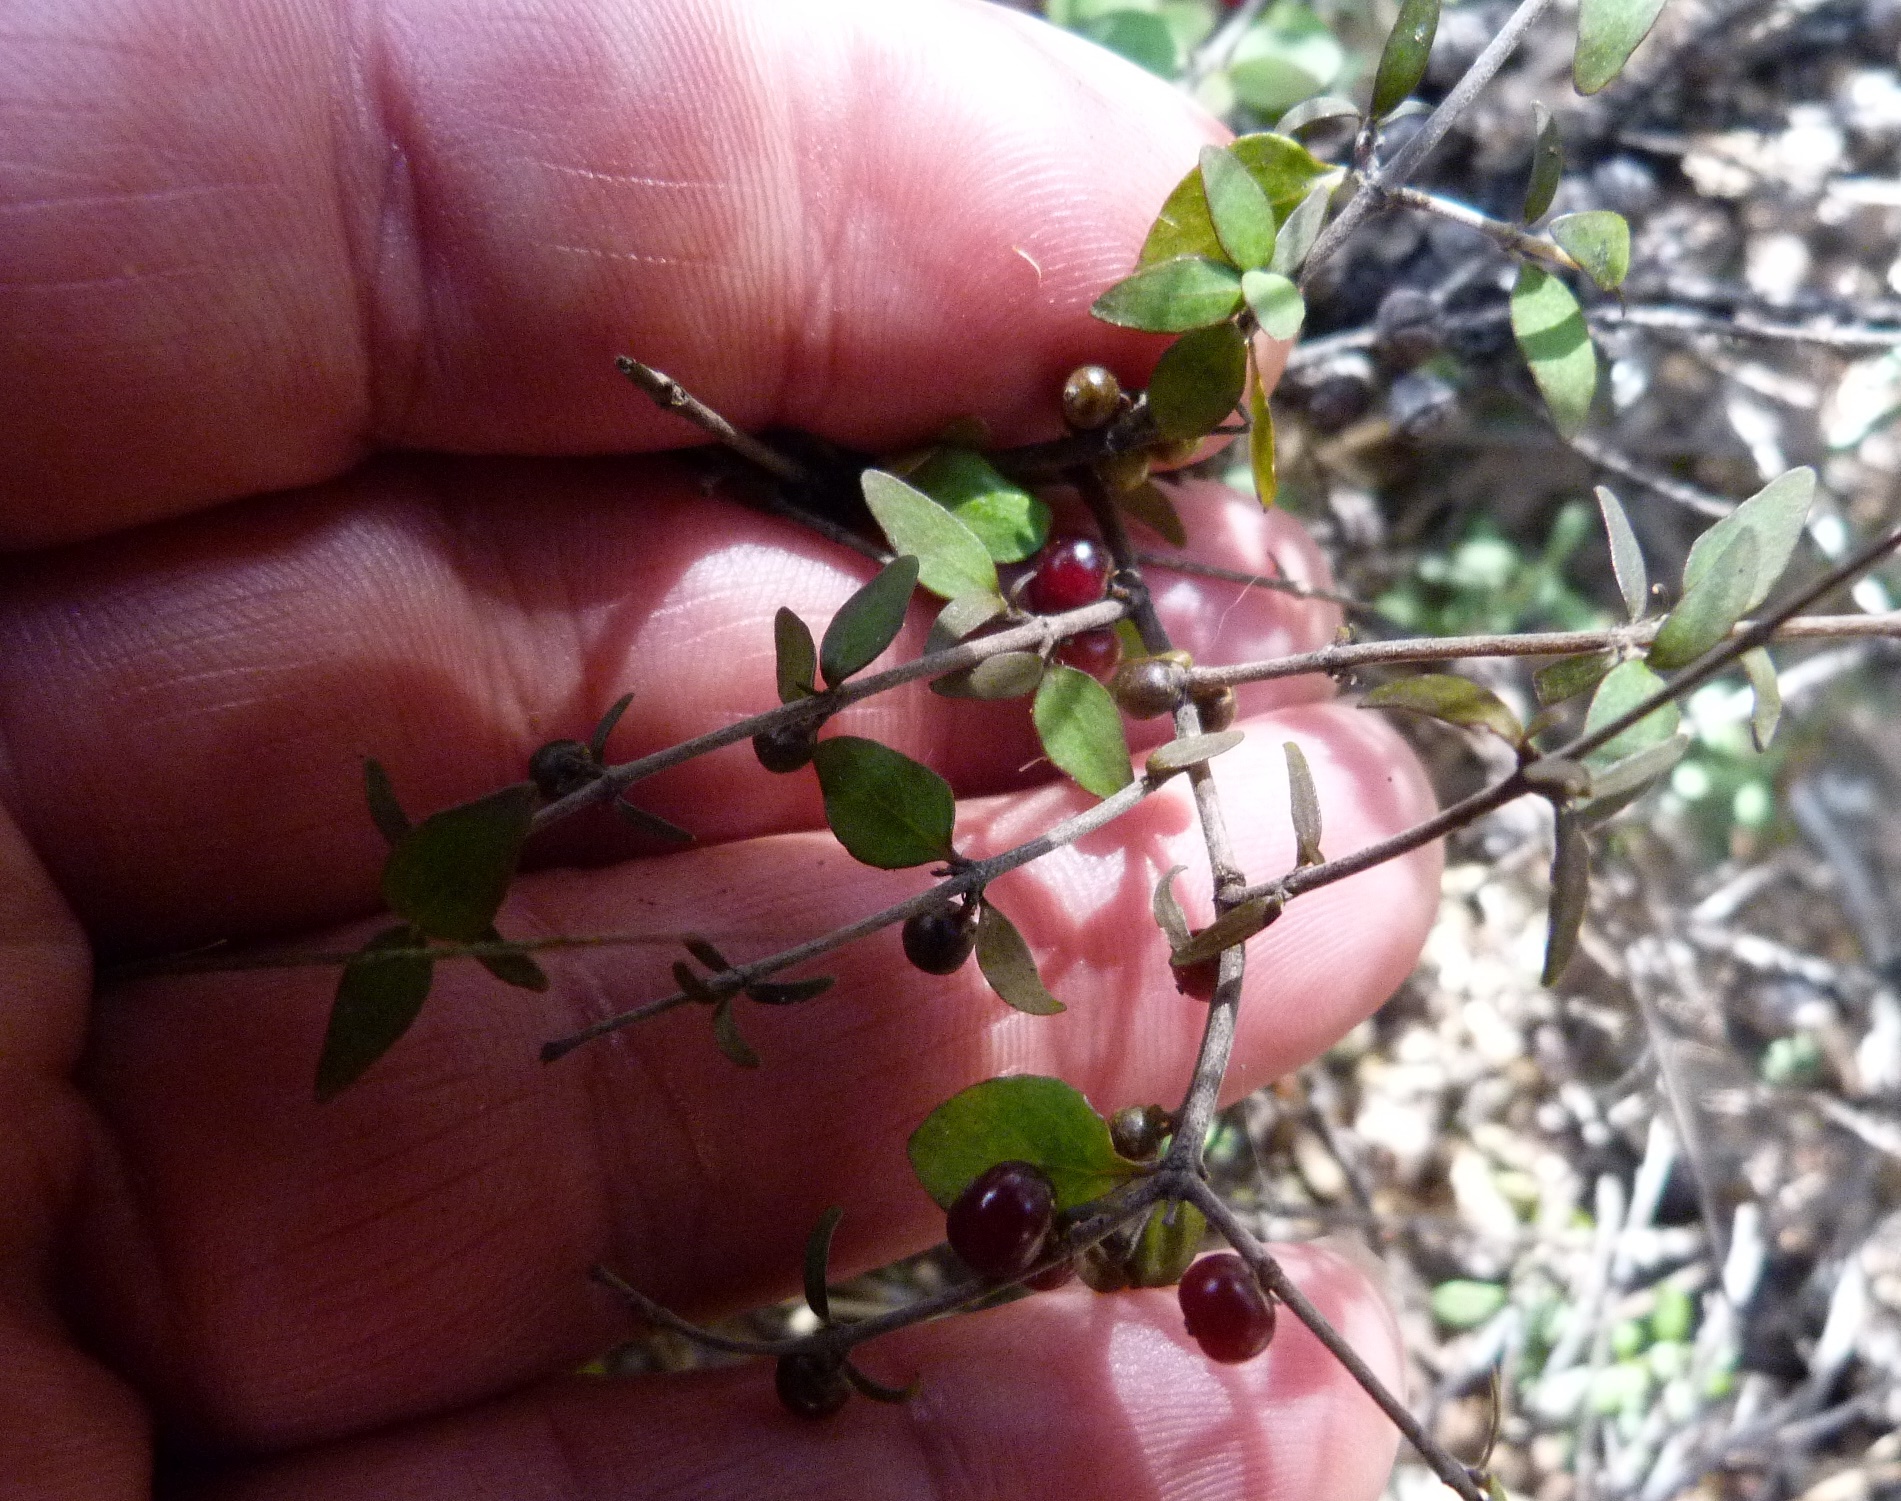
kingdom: Plantae
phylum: Tracheophyta
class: Magnoliopsida
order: Gentianales
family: Rubiaceae
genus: Coprosma
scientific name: Coprosma rhamnoides
